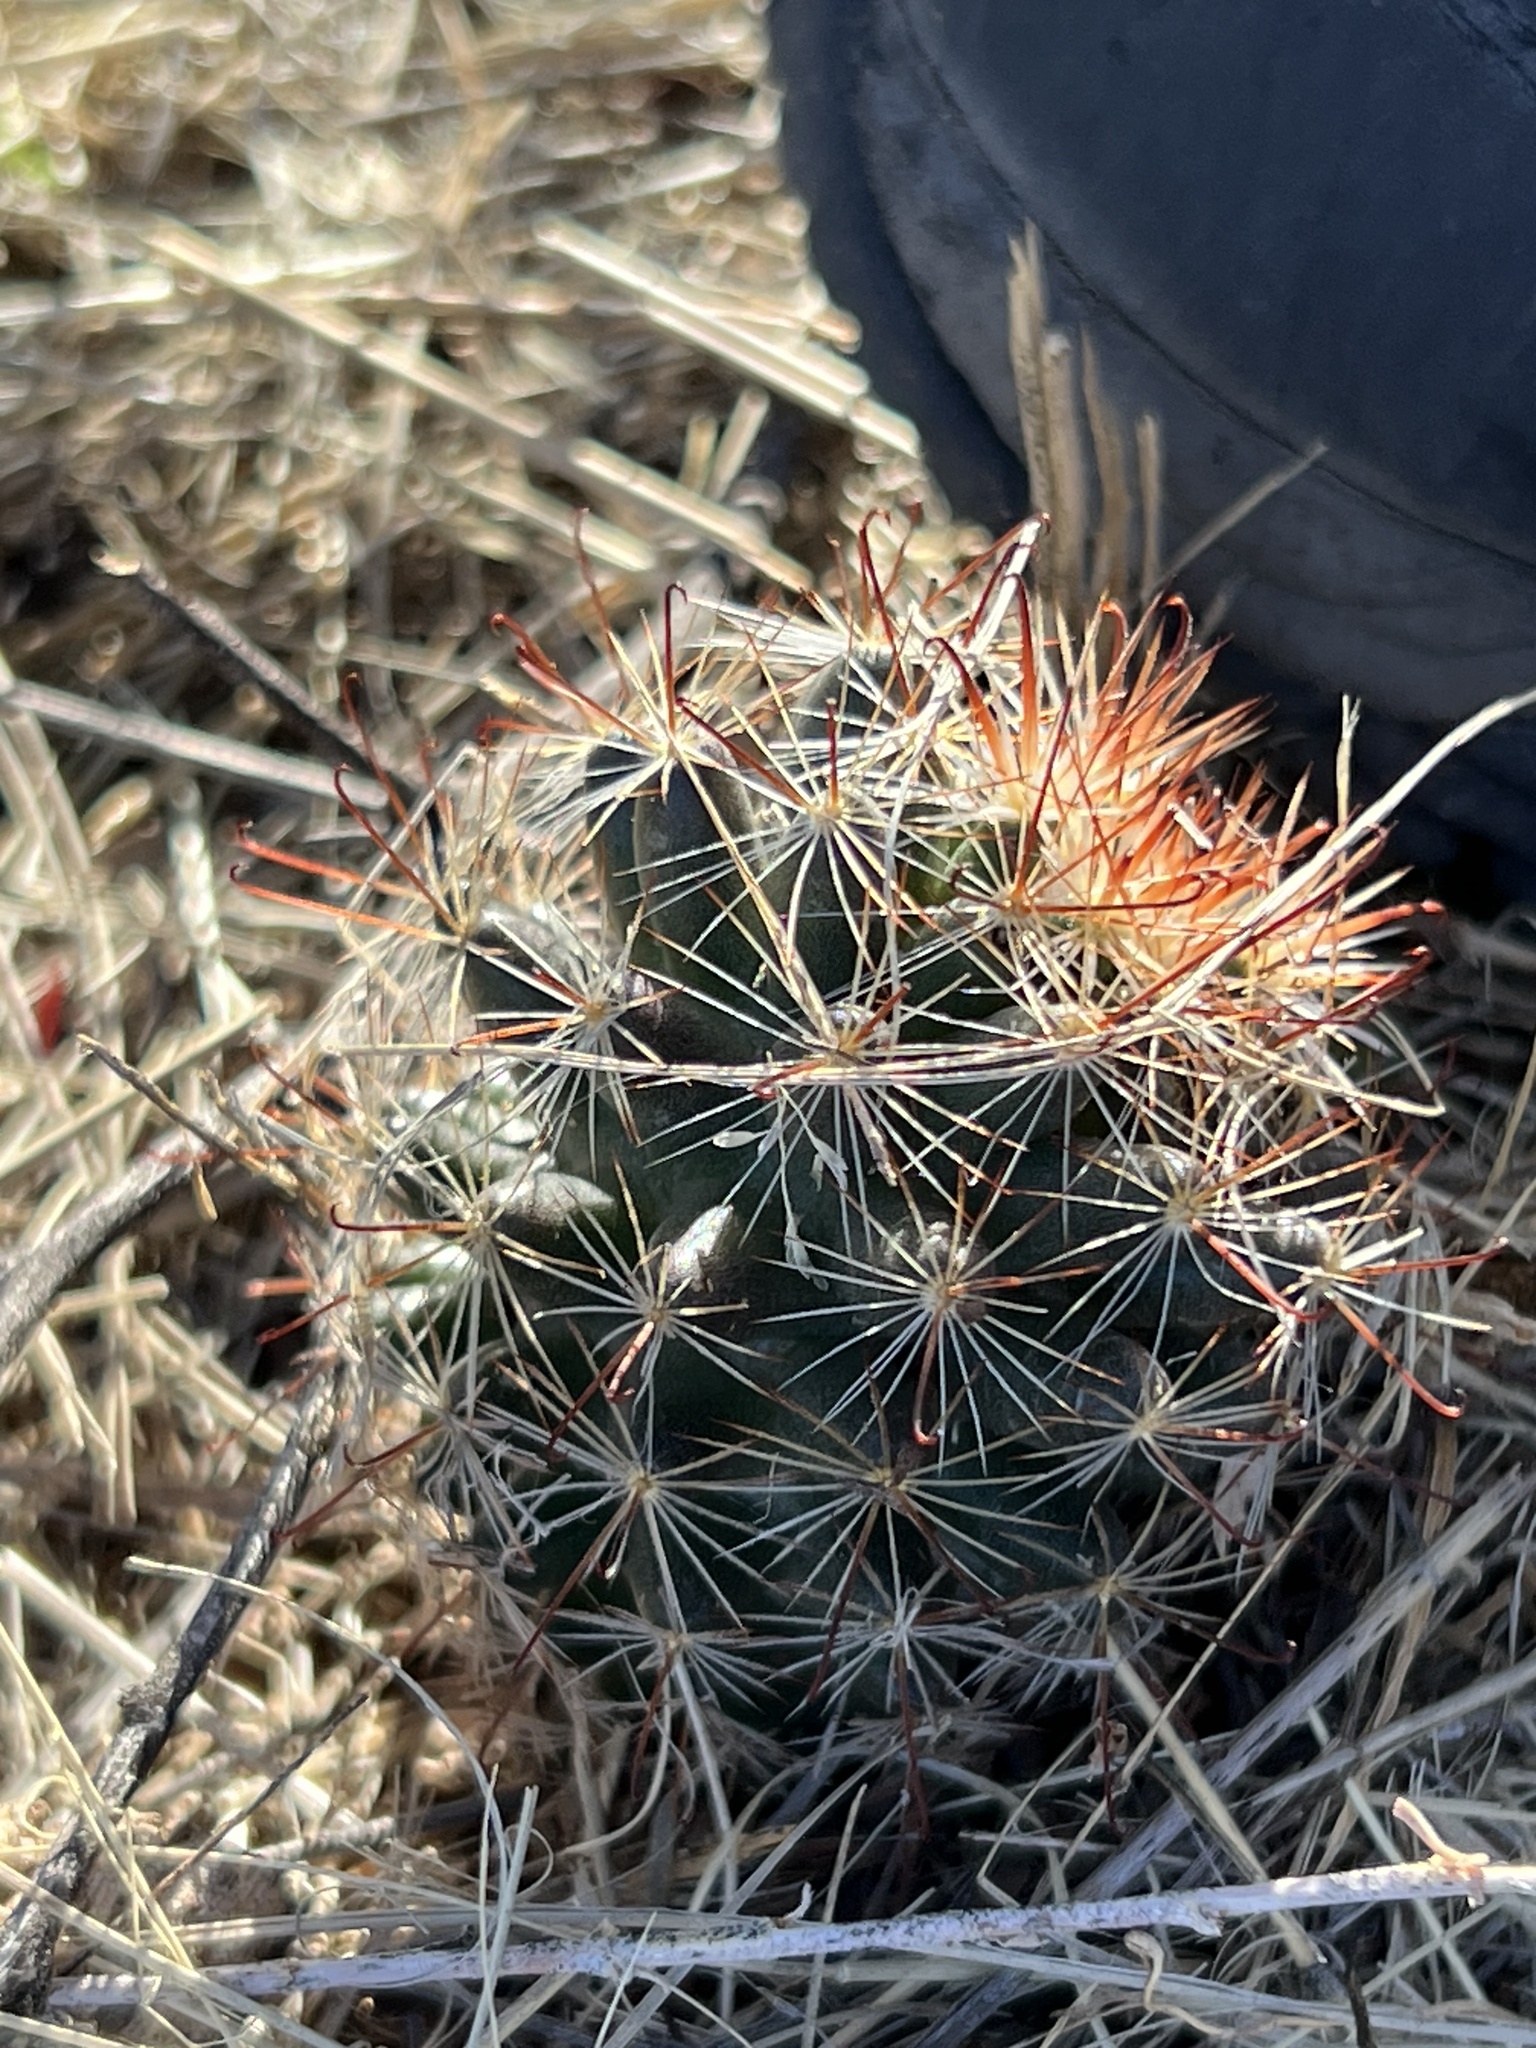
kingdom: Plantae
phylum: Tracheophyta
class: Magnoliopsida
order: Caryophyllales
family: Cactaceae
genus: Cochemiea
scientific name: Cochemiea wrightii
